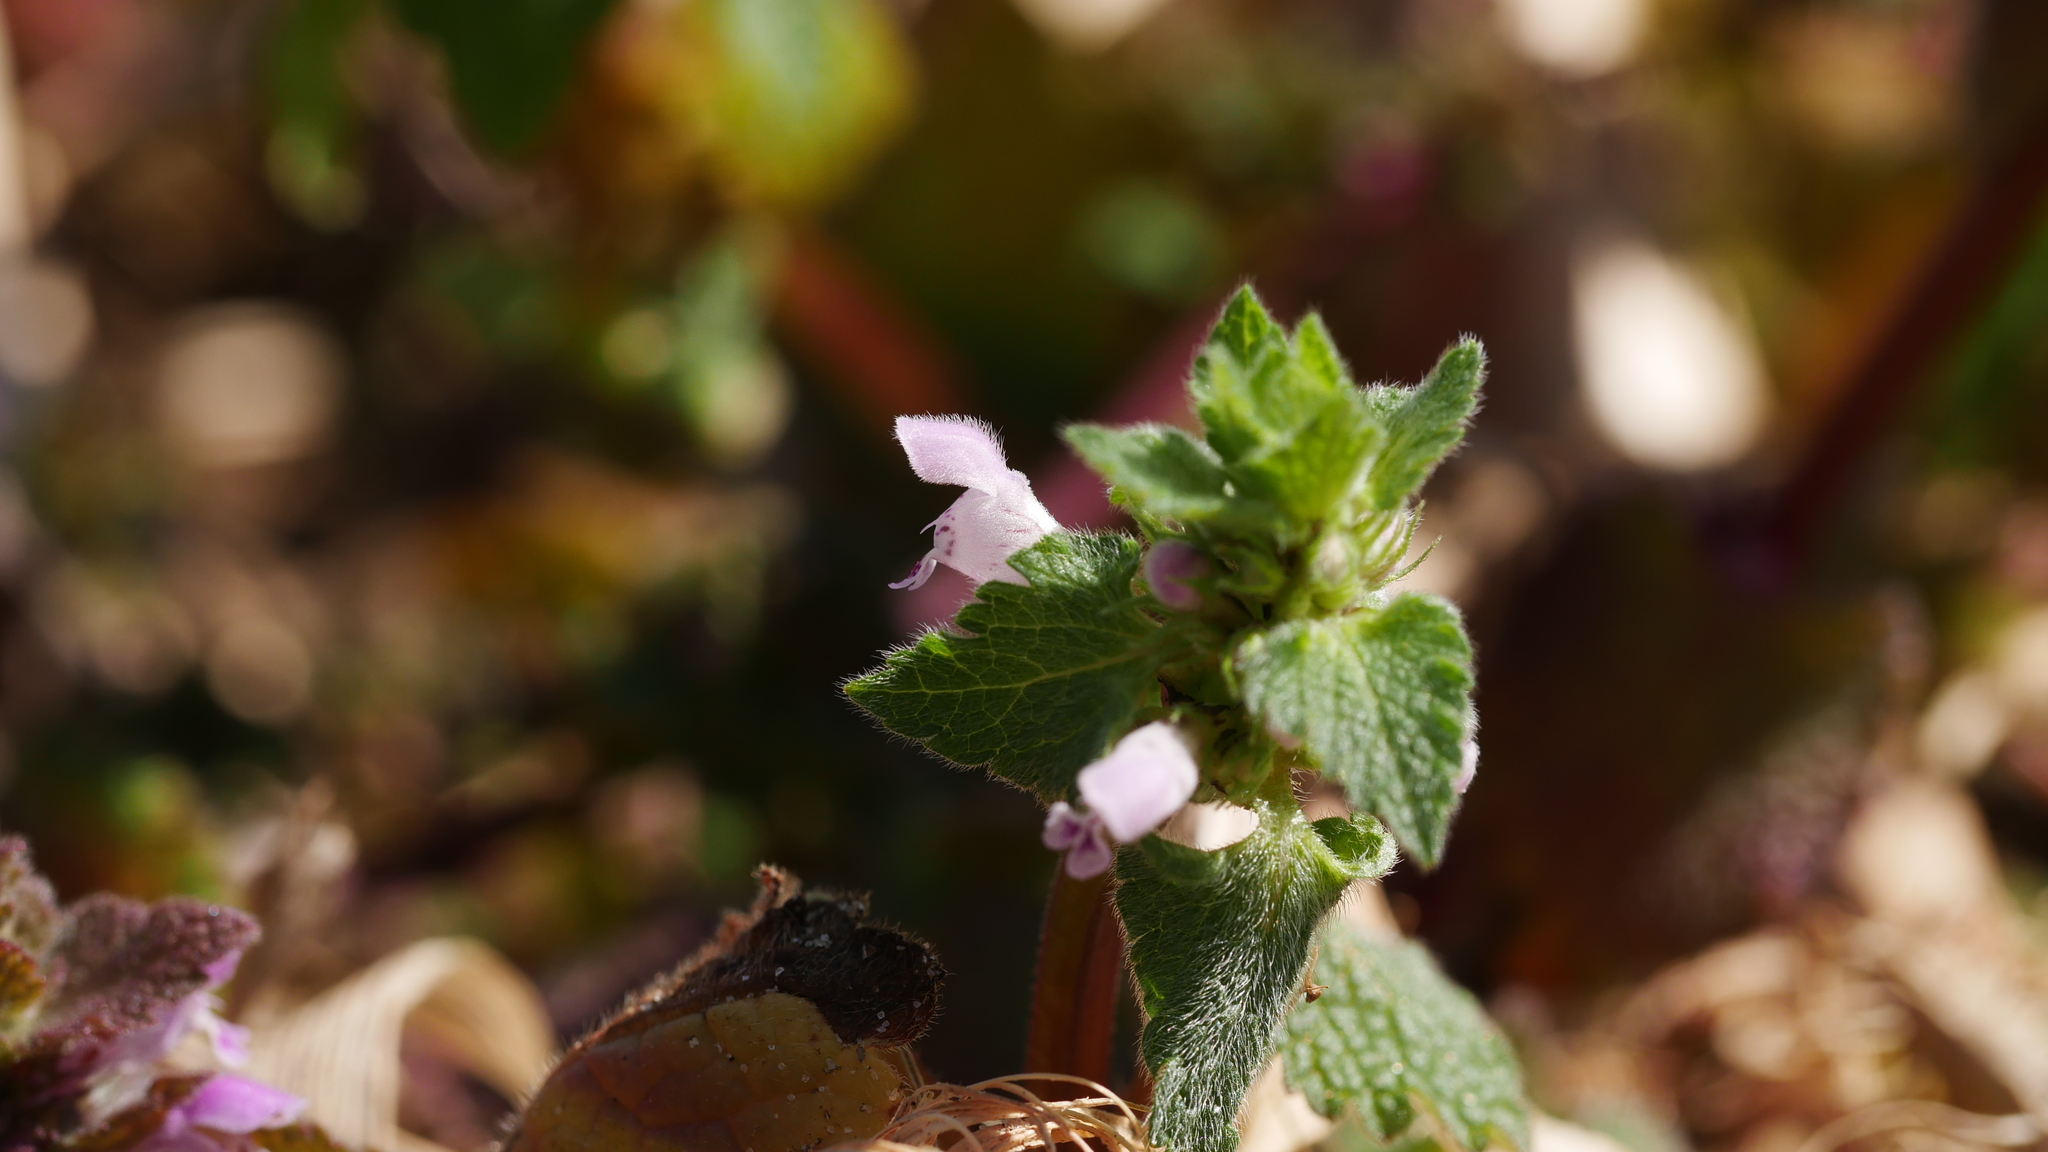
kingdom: Plantae
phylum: Tracheophyta
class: Magnoliopsida
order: Lamiales
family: Lamiaceae
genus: Lamium
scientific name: Lamium purpureum
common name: Red dead-nettle
